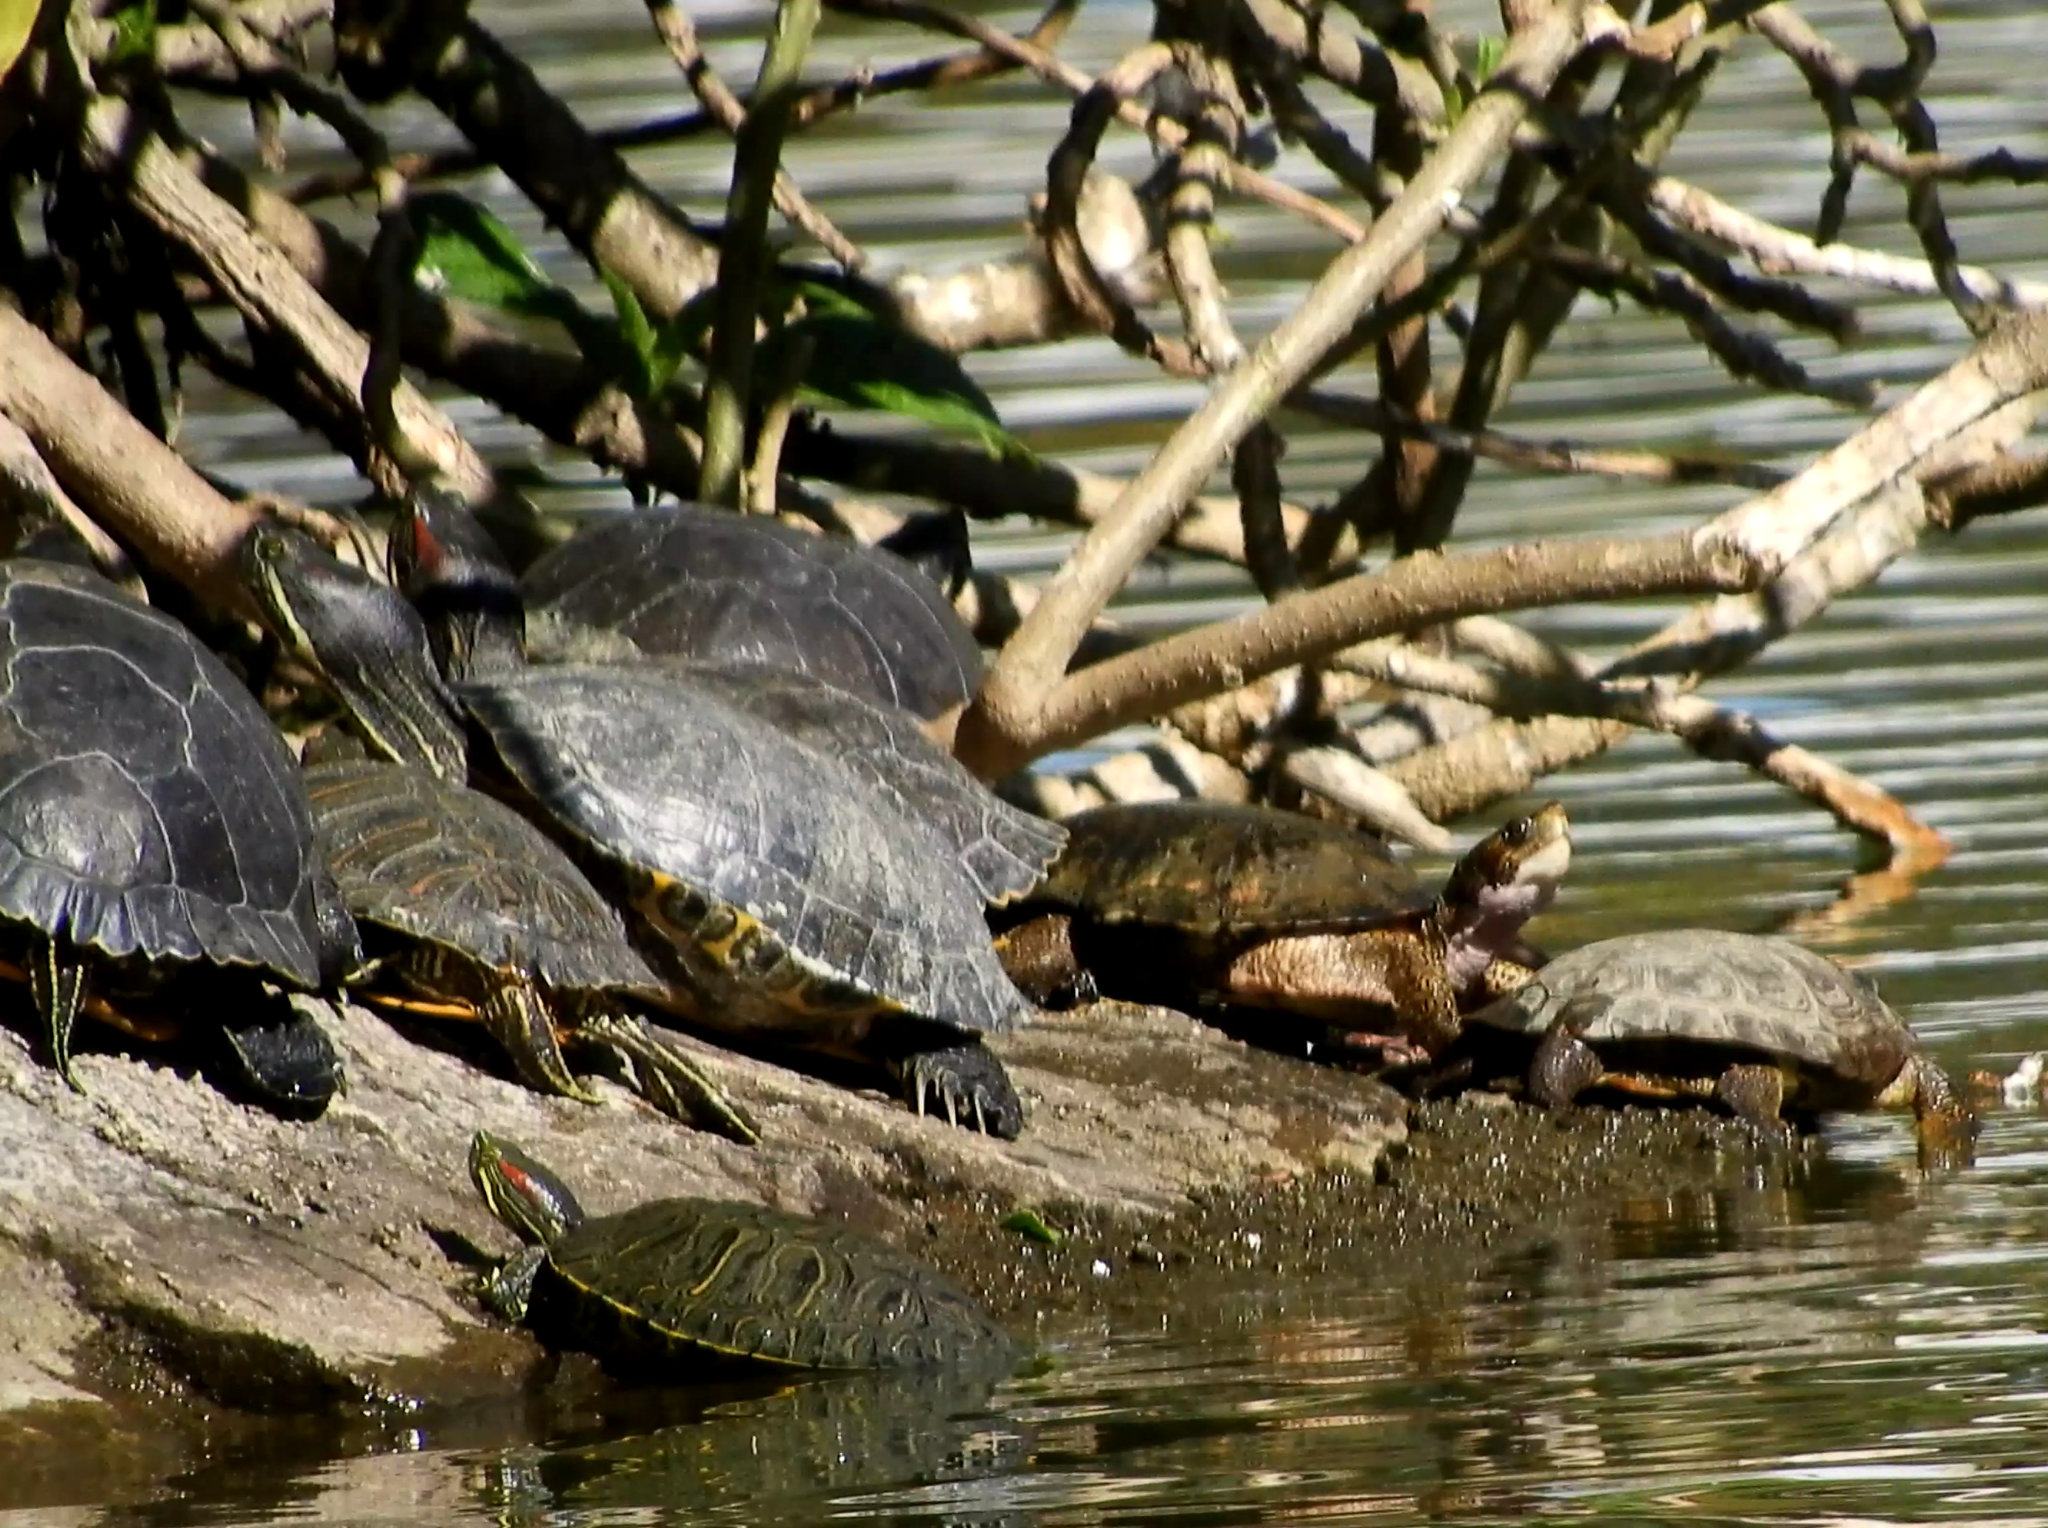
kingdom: Animalia
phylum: Chordata
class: Testudines
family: Emydidae
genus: Actinemys
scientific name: Actinemys marmorata
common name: Western pond turtle
